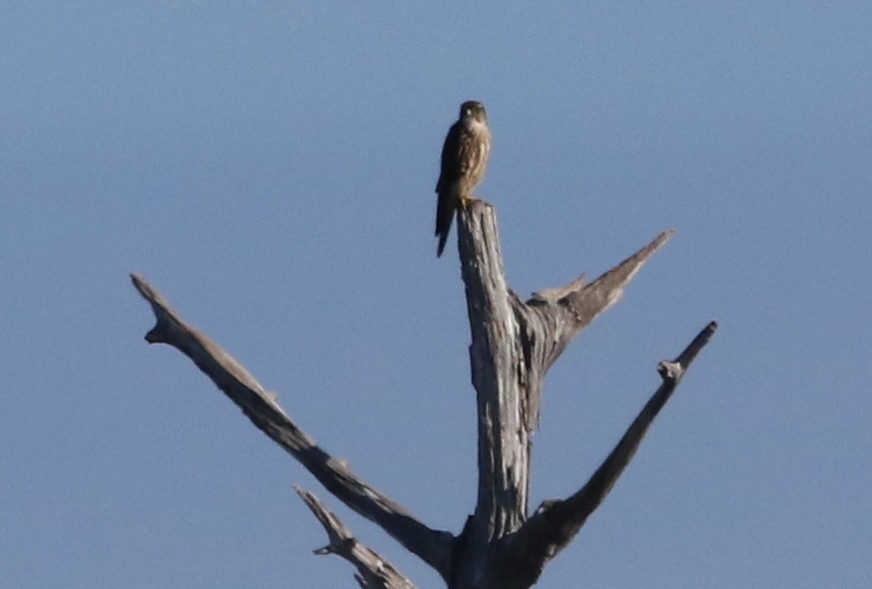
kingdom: Animalia
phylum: Chordata
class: Aves
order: Falconiformes
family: Falconidae
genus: Falco
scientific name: Falco columbarius
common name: Merlin
